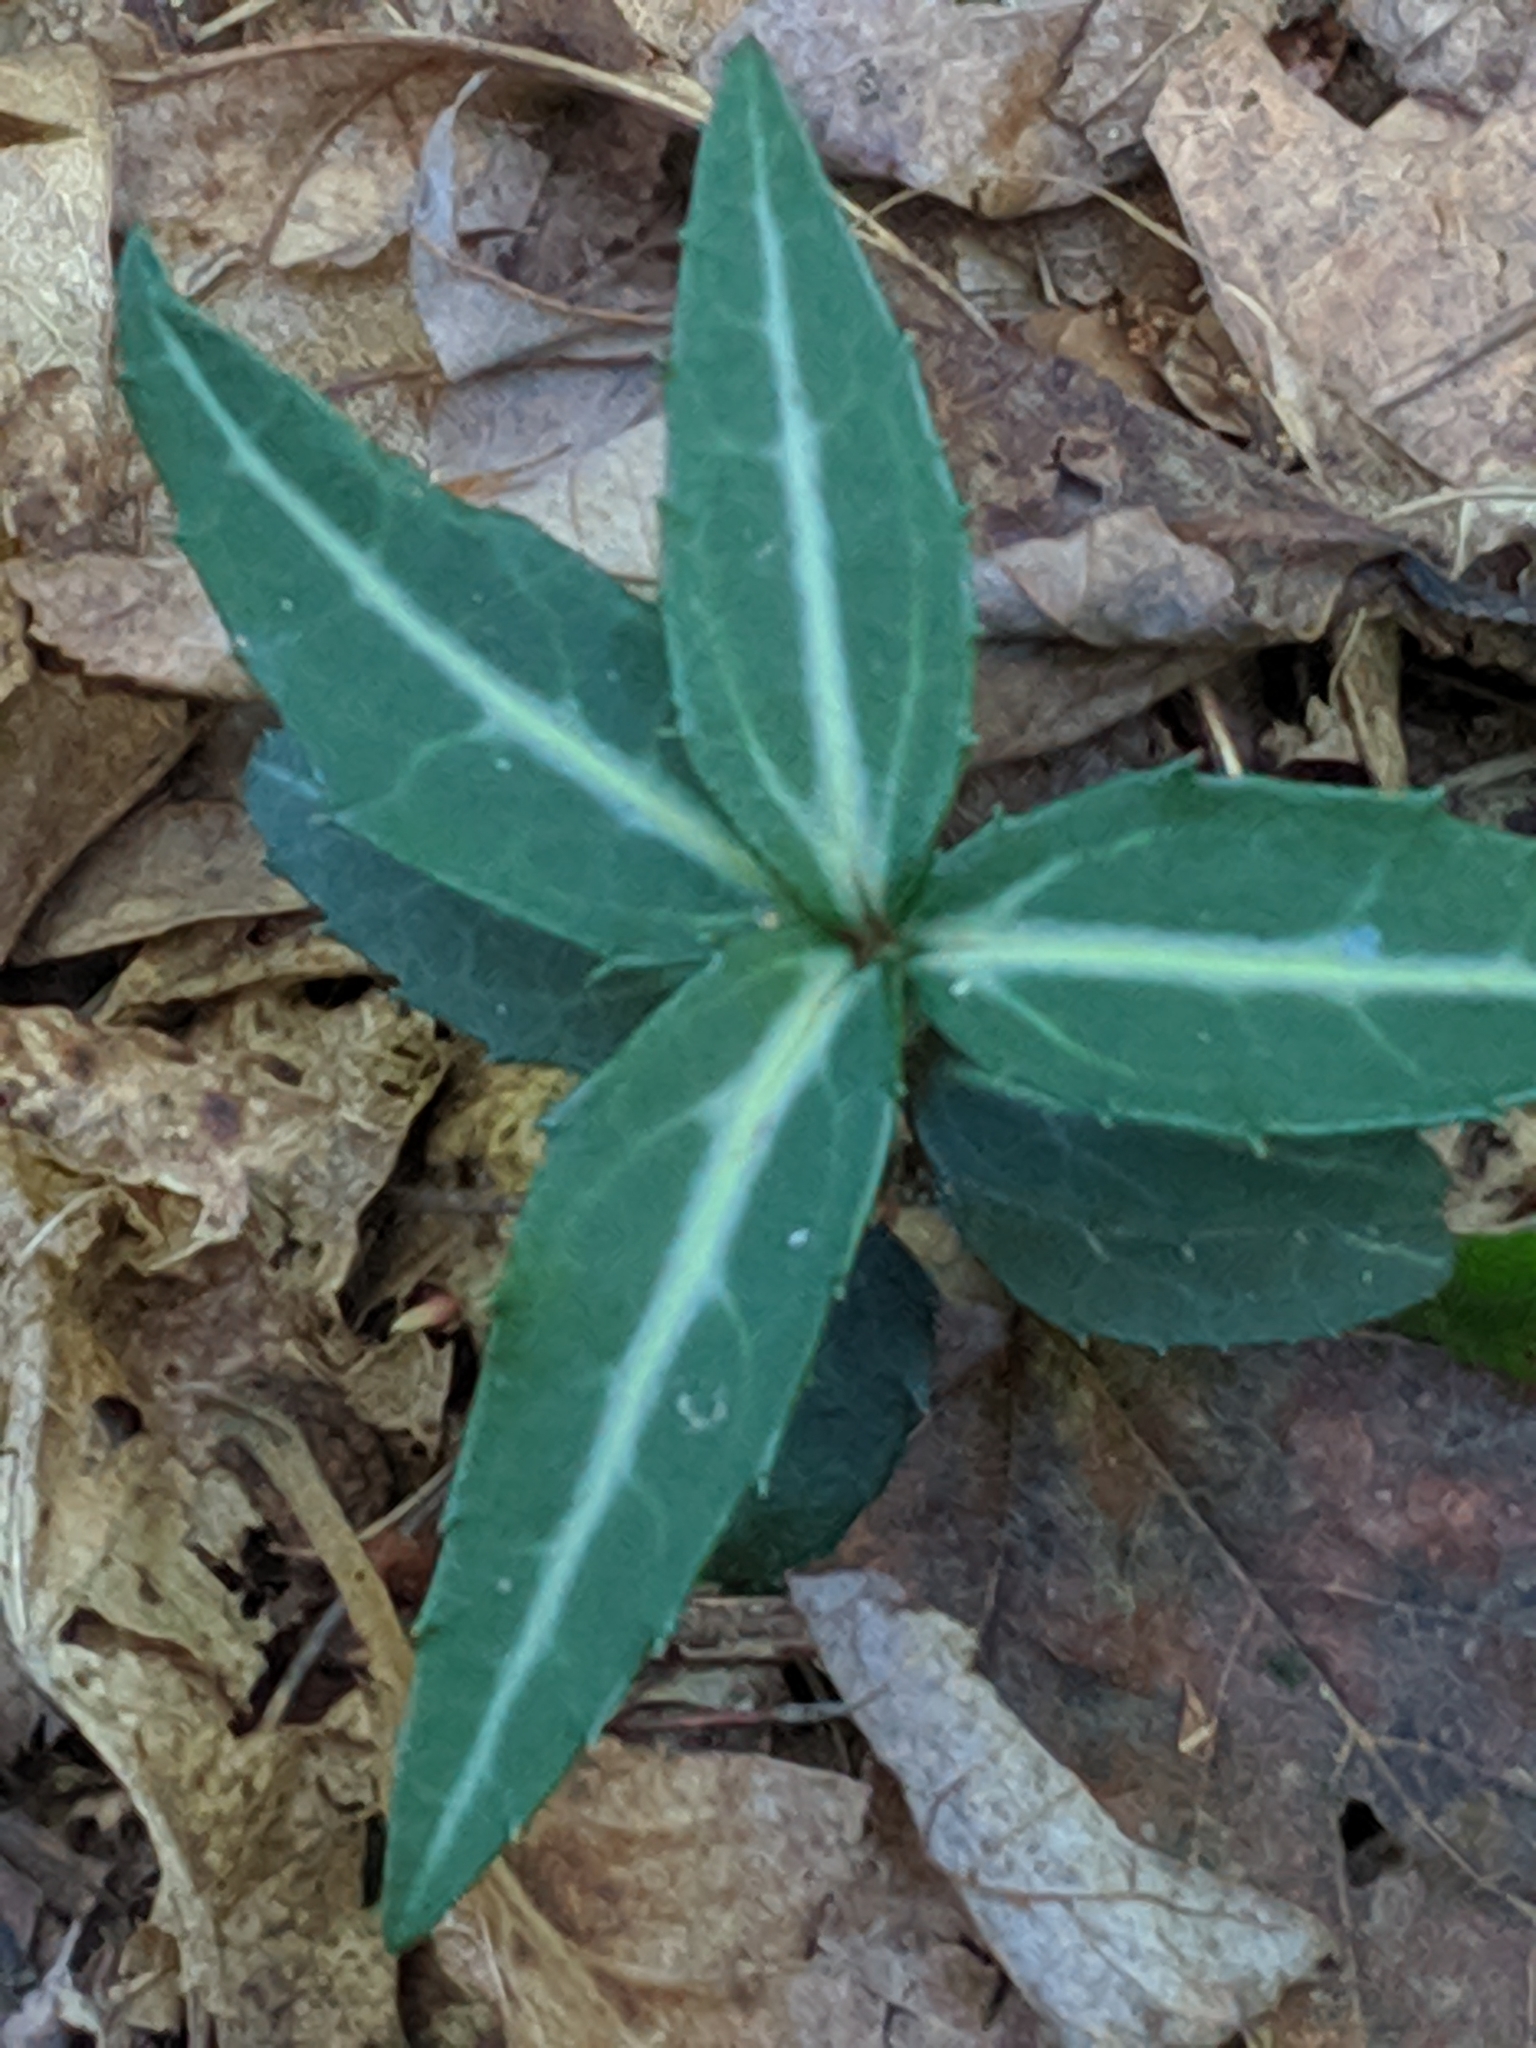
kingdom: Plantae
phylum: Tracheophyta
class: Magnoliopsida
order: Ericales
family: Ericaceae
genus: Chimaphila
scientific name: Chimaphila maculata
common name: Spotted pipsissewa
